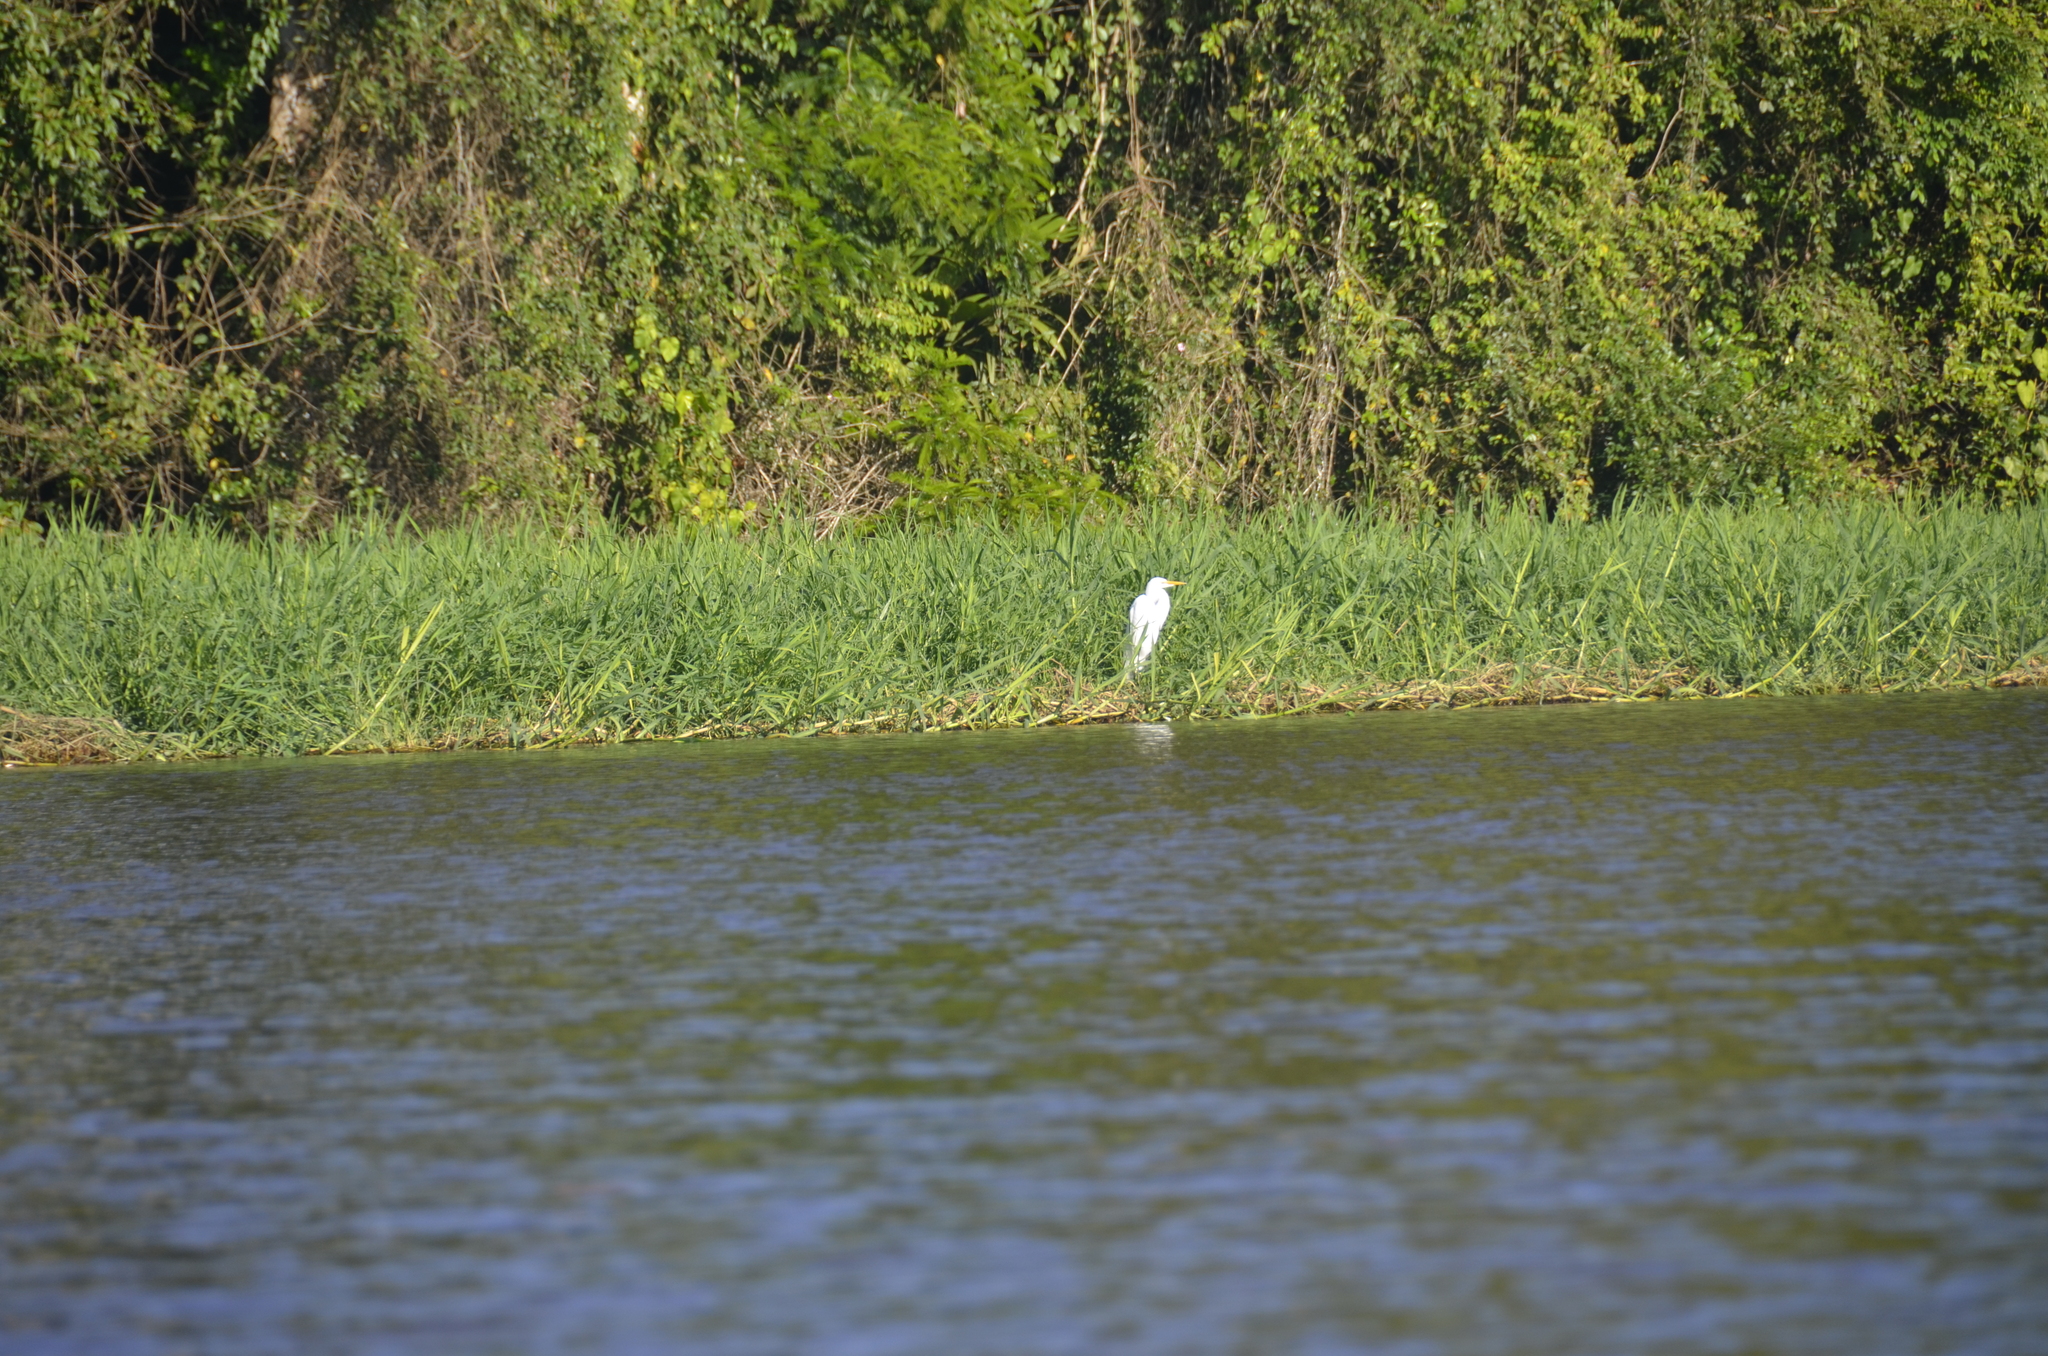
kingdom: Animalia
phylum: Chordata
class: Aves
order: Pelecaniformes
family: Ardeidae
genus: Ardea
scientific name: Ardea alba
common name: Great egret
